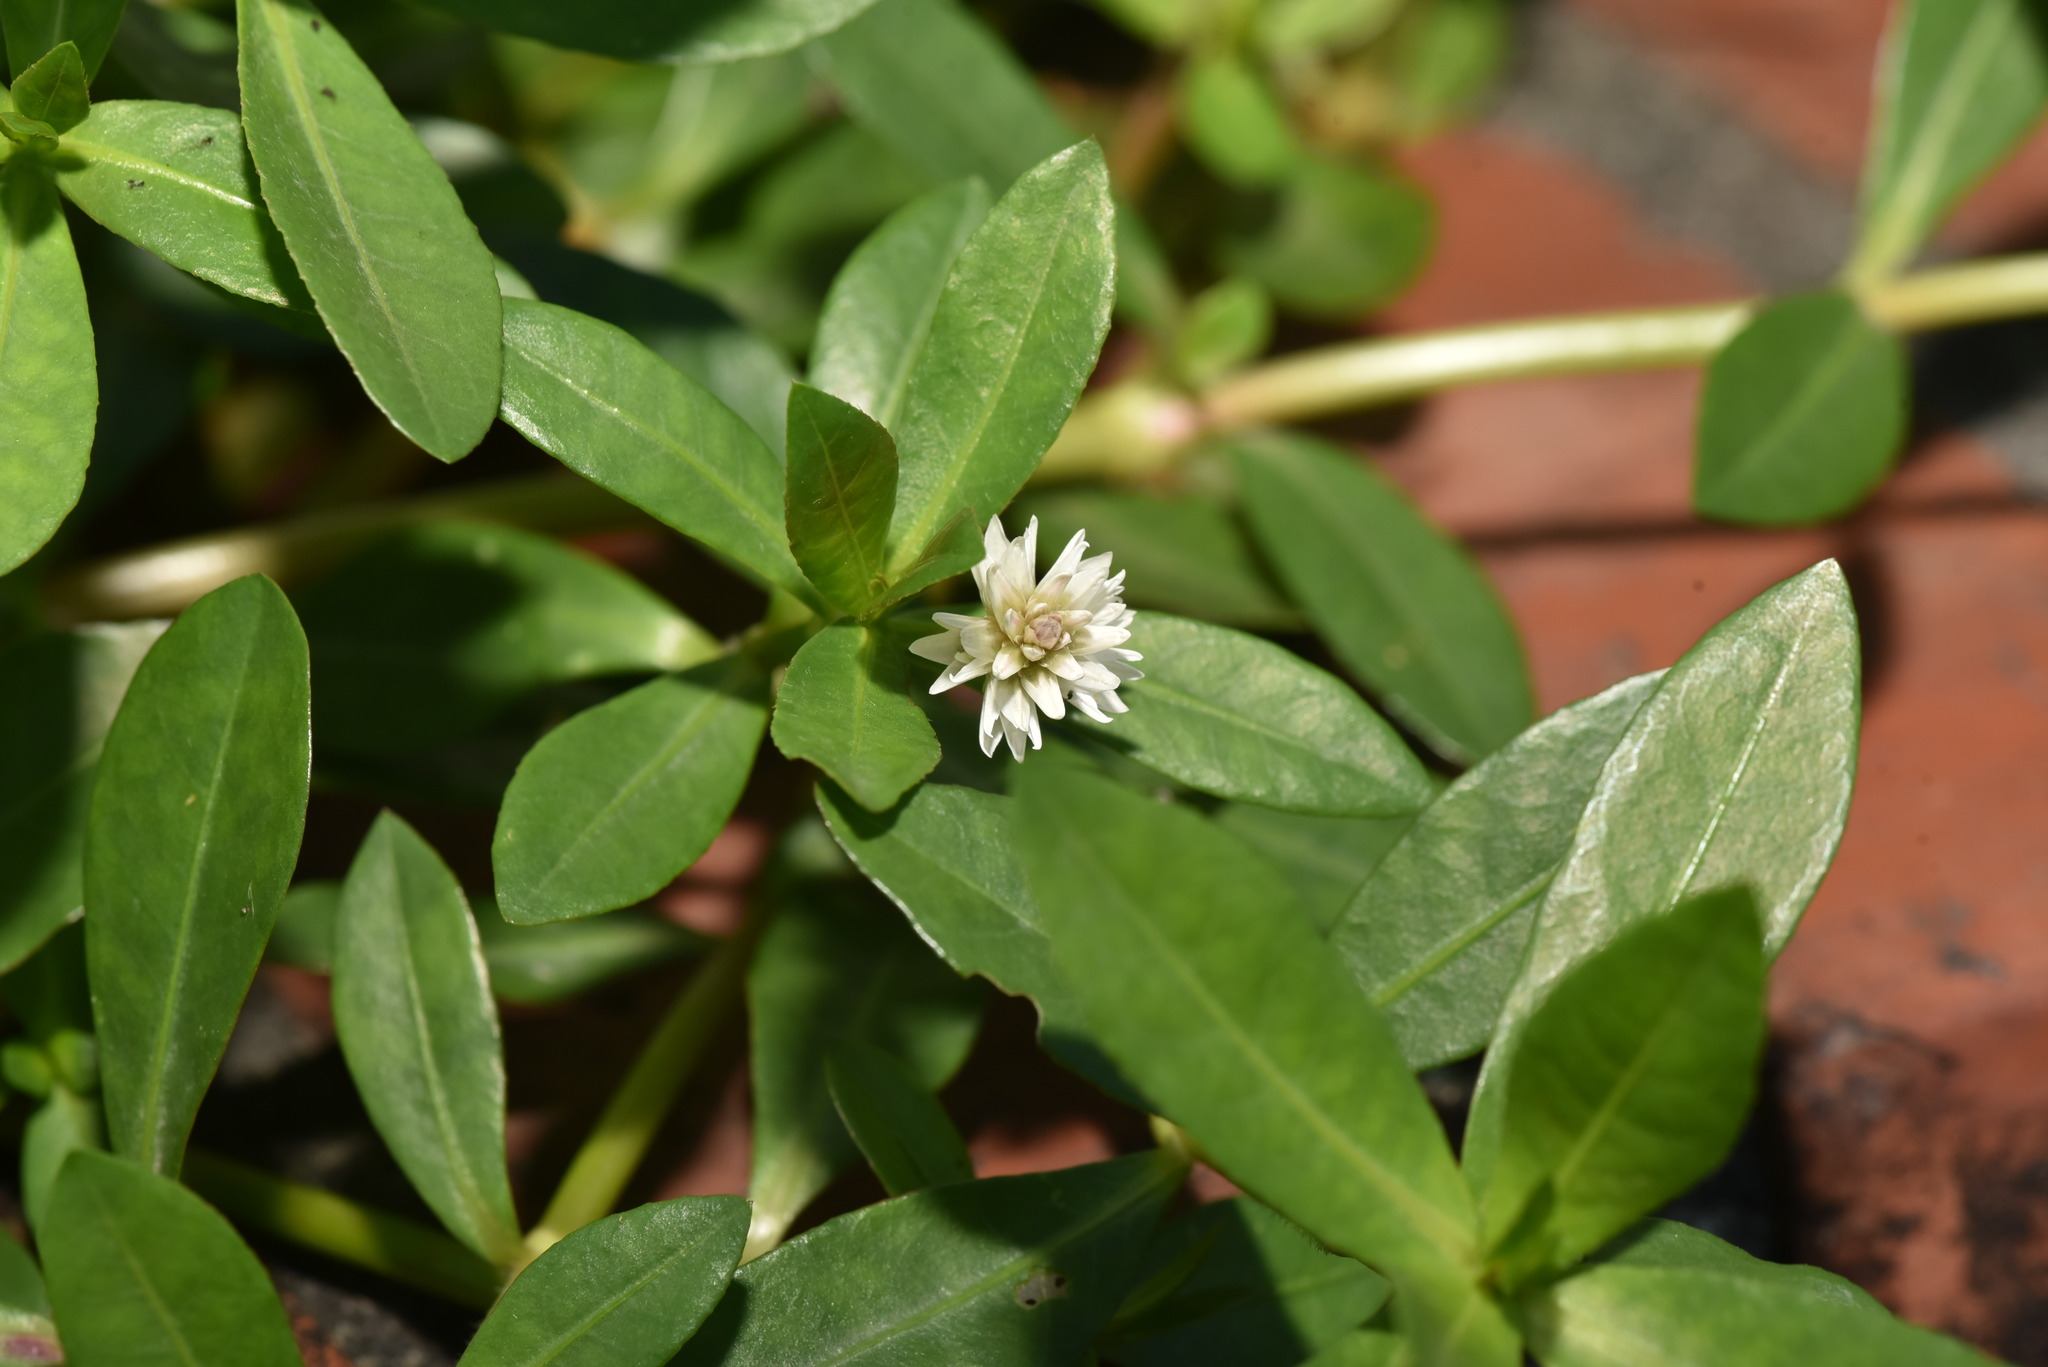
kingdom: Plantae
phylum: Tracheophyta
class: Magnoliopsida
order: Caryophyllales
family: Amaranthaceae
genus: Alternanthera
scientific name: Alternanthera philoxeroides
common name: Alligatorweed
